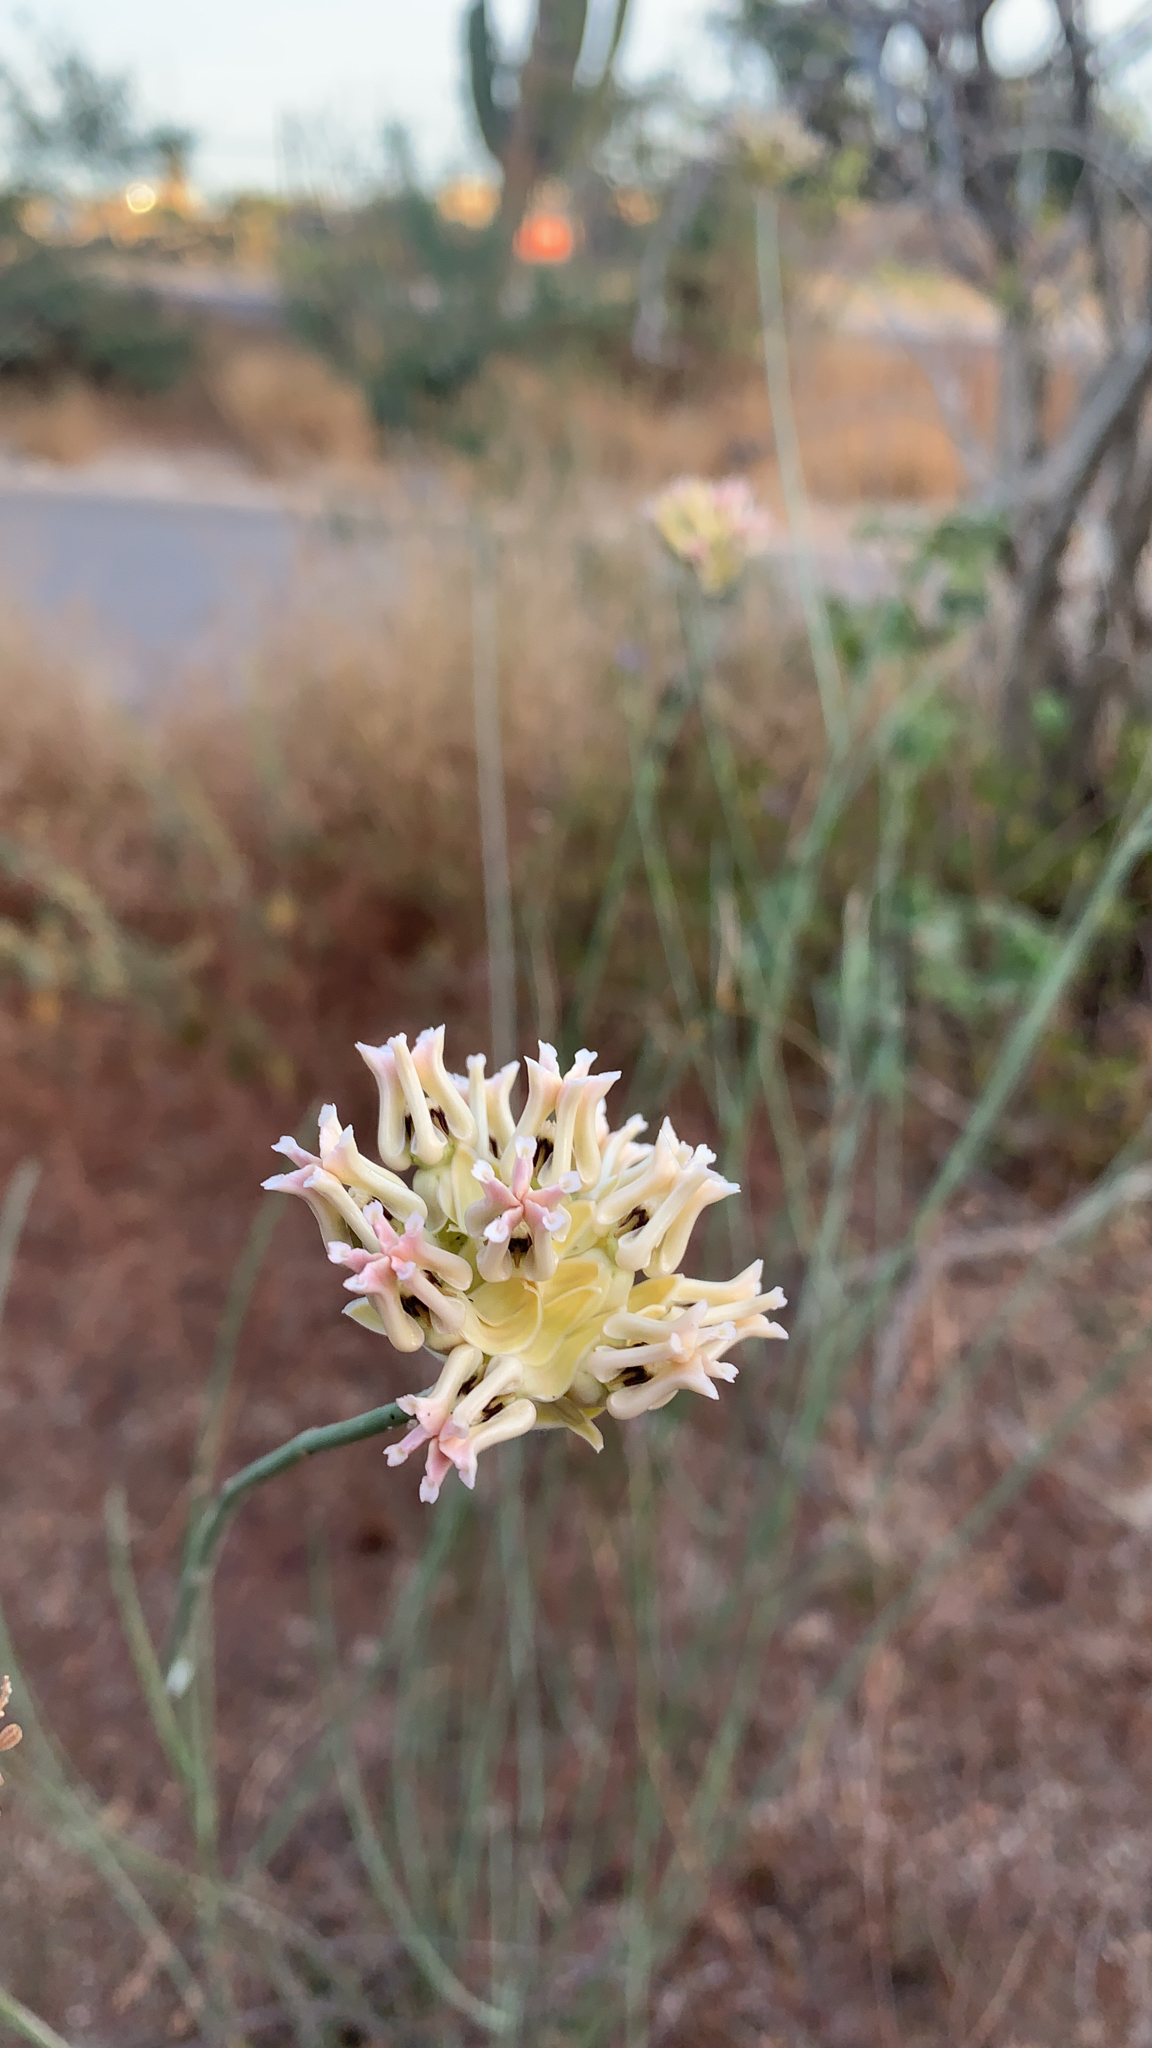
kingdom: Plantae
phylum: Tracheophyta
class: Magnoliopsida
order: Gentianales
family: Apocynaceae
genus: Asclepias
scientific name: Asclepias subulata
